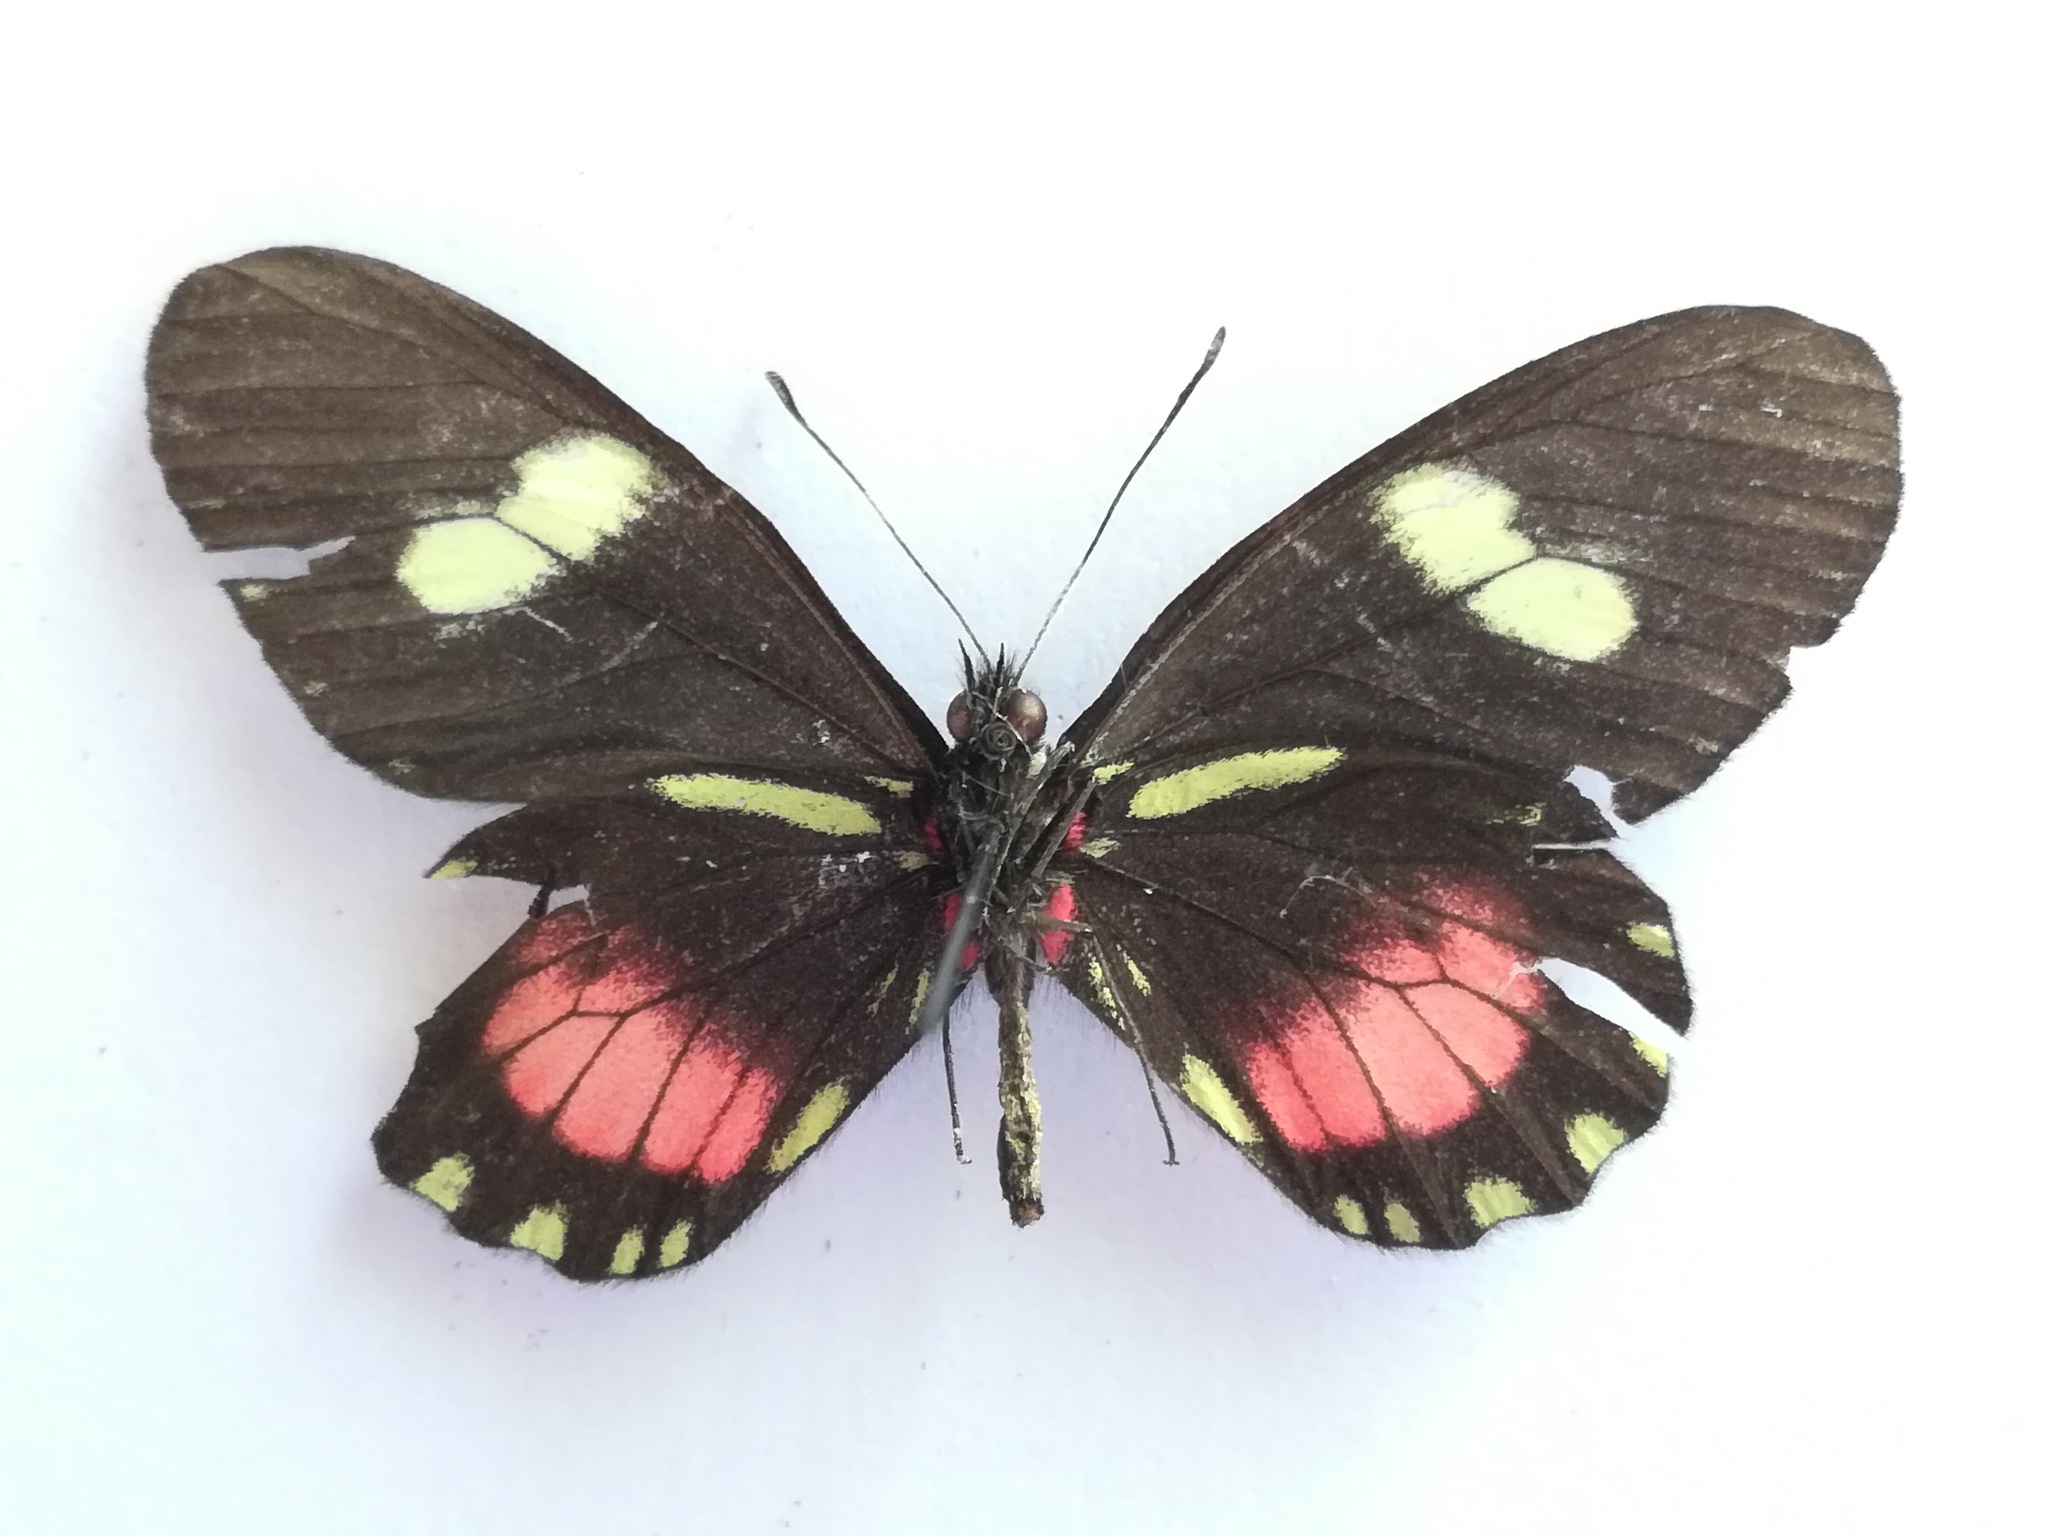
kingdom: Animalia
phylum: Arthropoda
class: Insecta
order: Lepidoptera
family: Pieridae
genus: Archonias
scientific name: Archonias brassolis
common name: Cattleheart white
